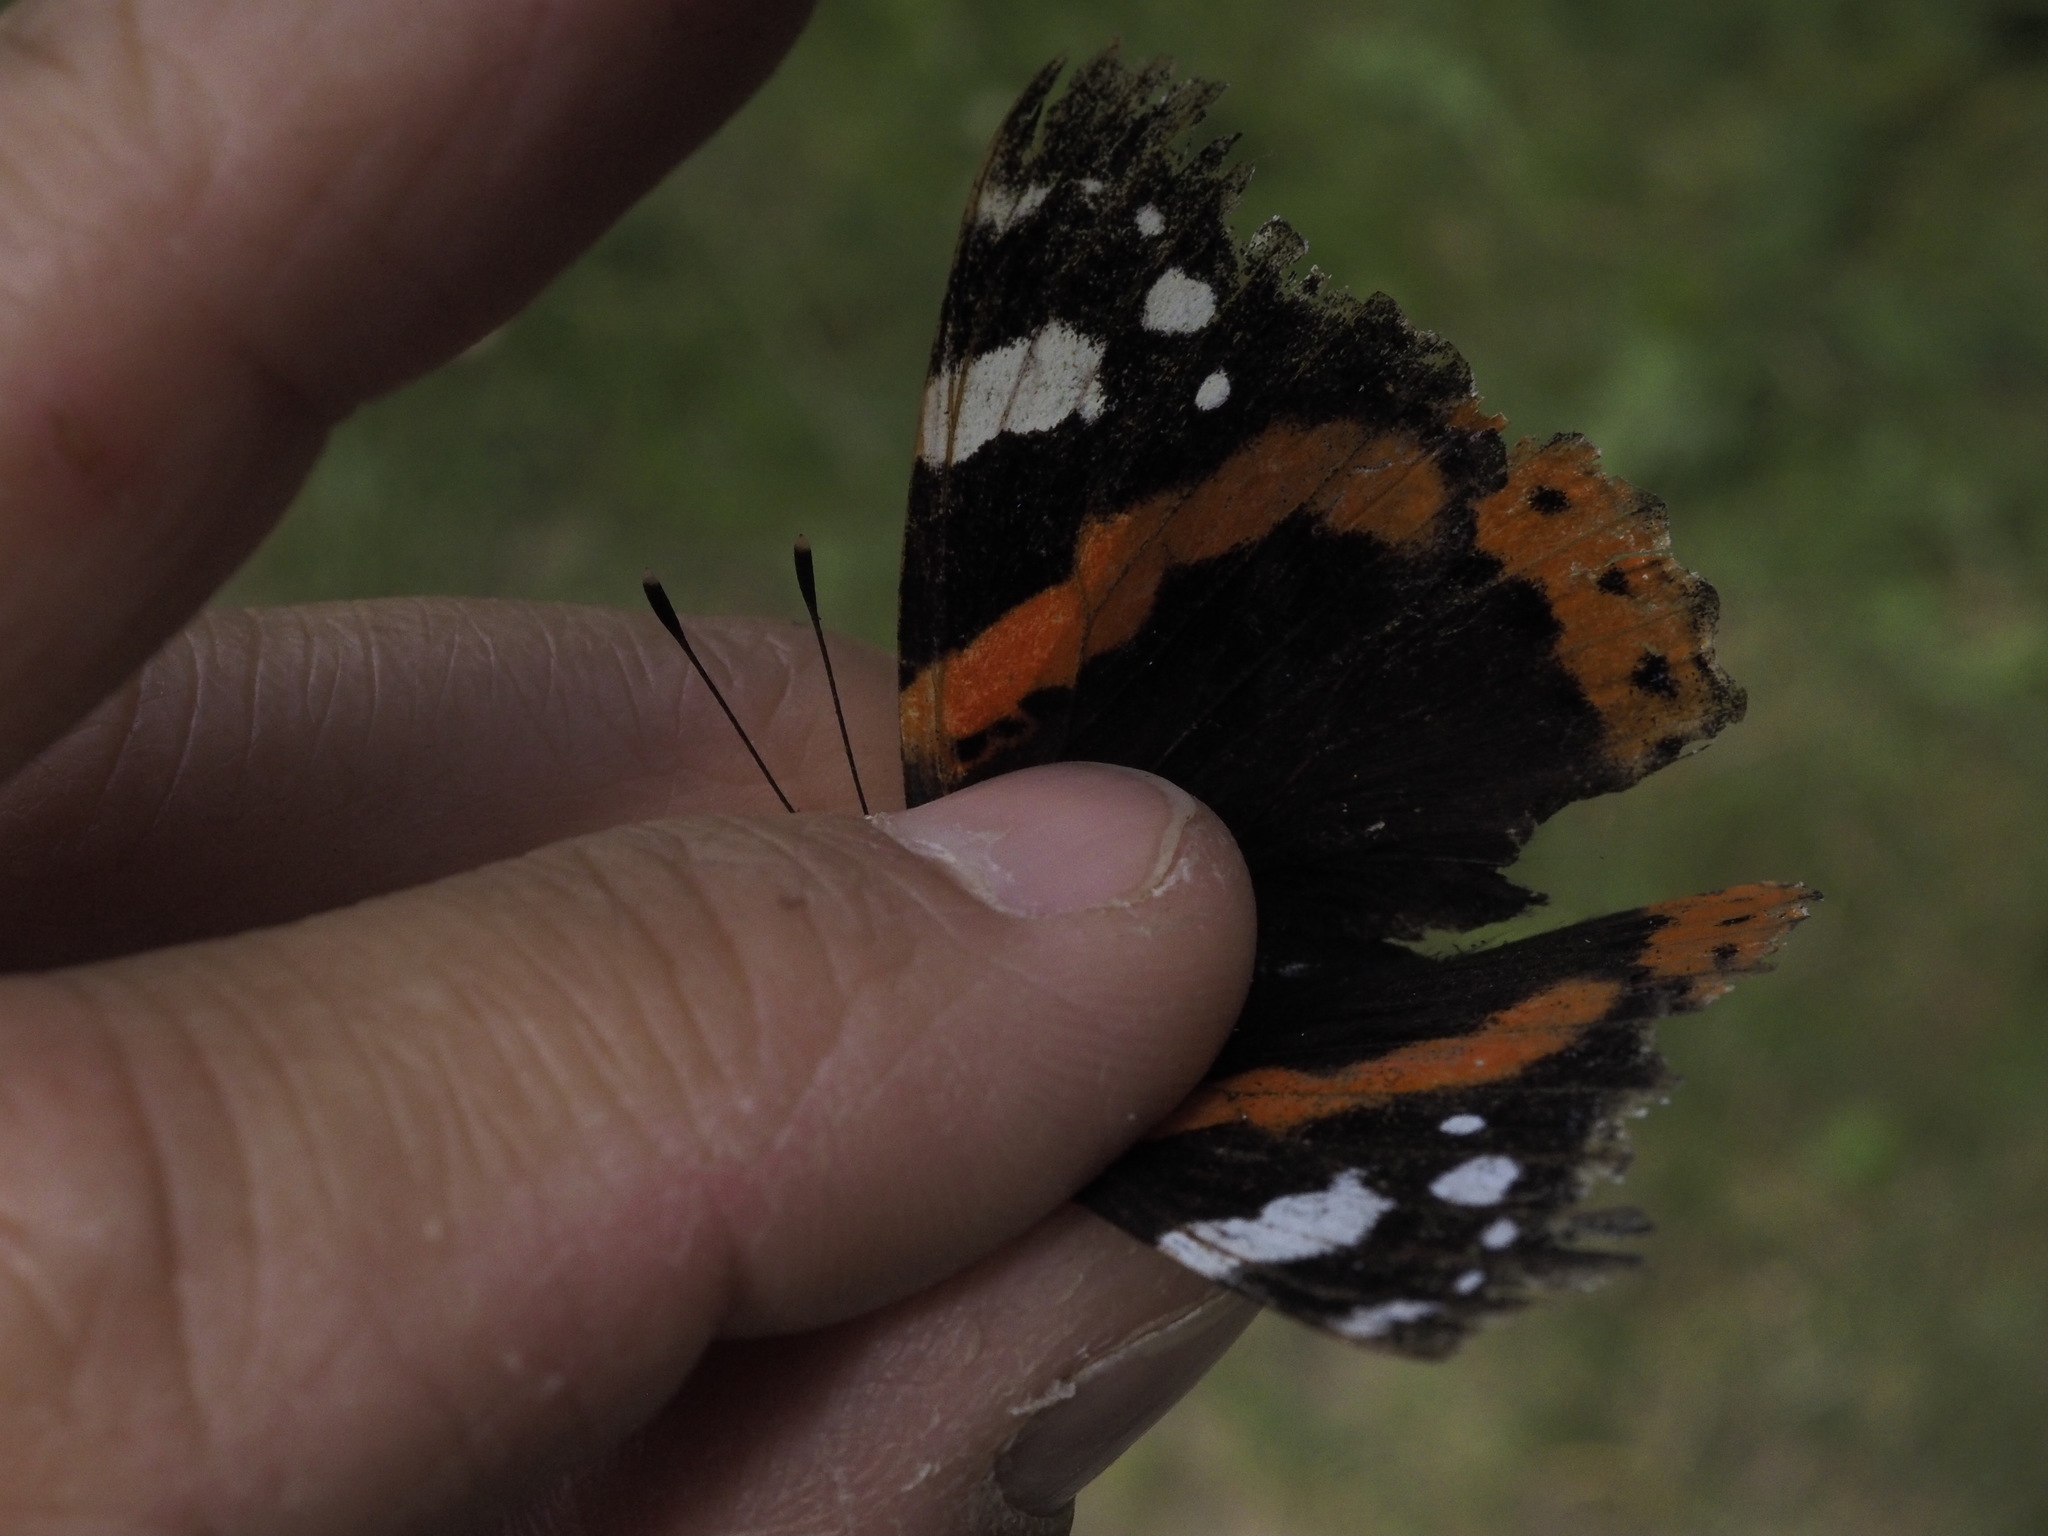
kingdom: Animalia
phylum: Arthropoda
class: Insecta
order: Lepidoptera
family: Nymphalidae
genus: Vanessa
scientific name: Vanessa atalanta
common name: Red admiral
